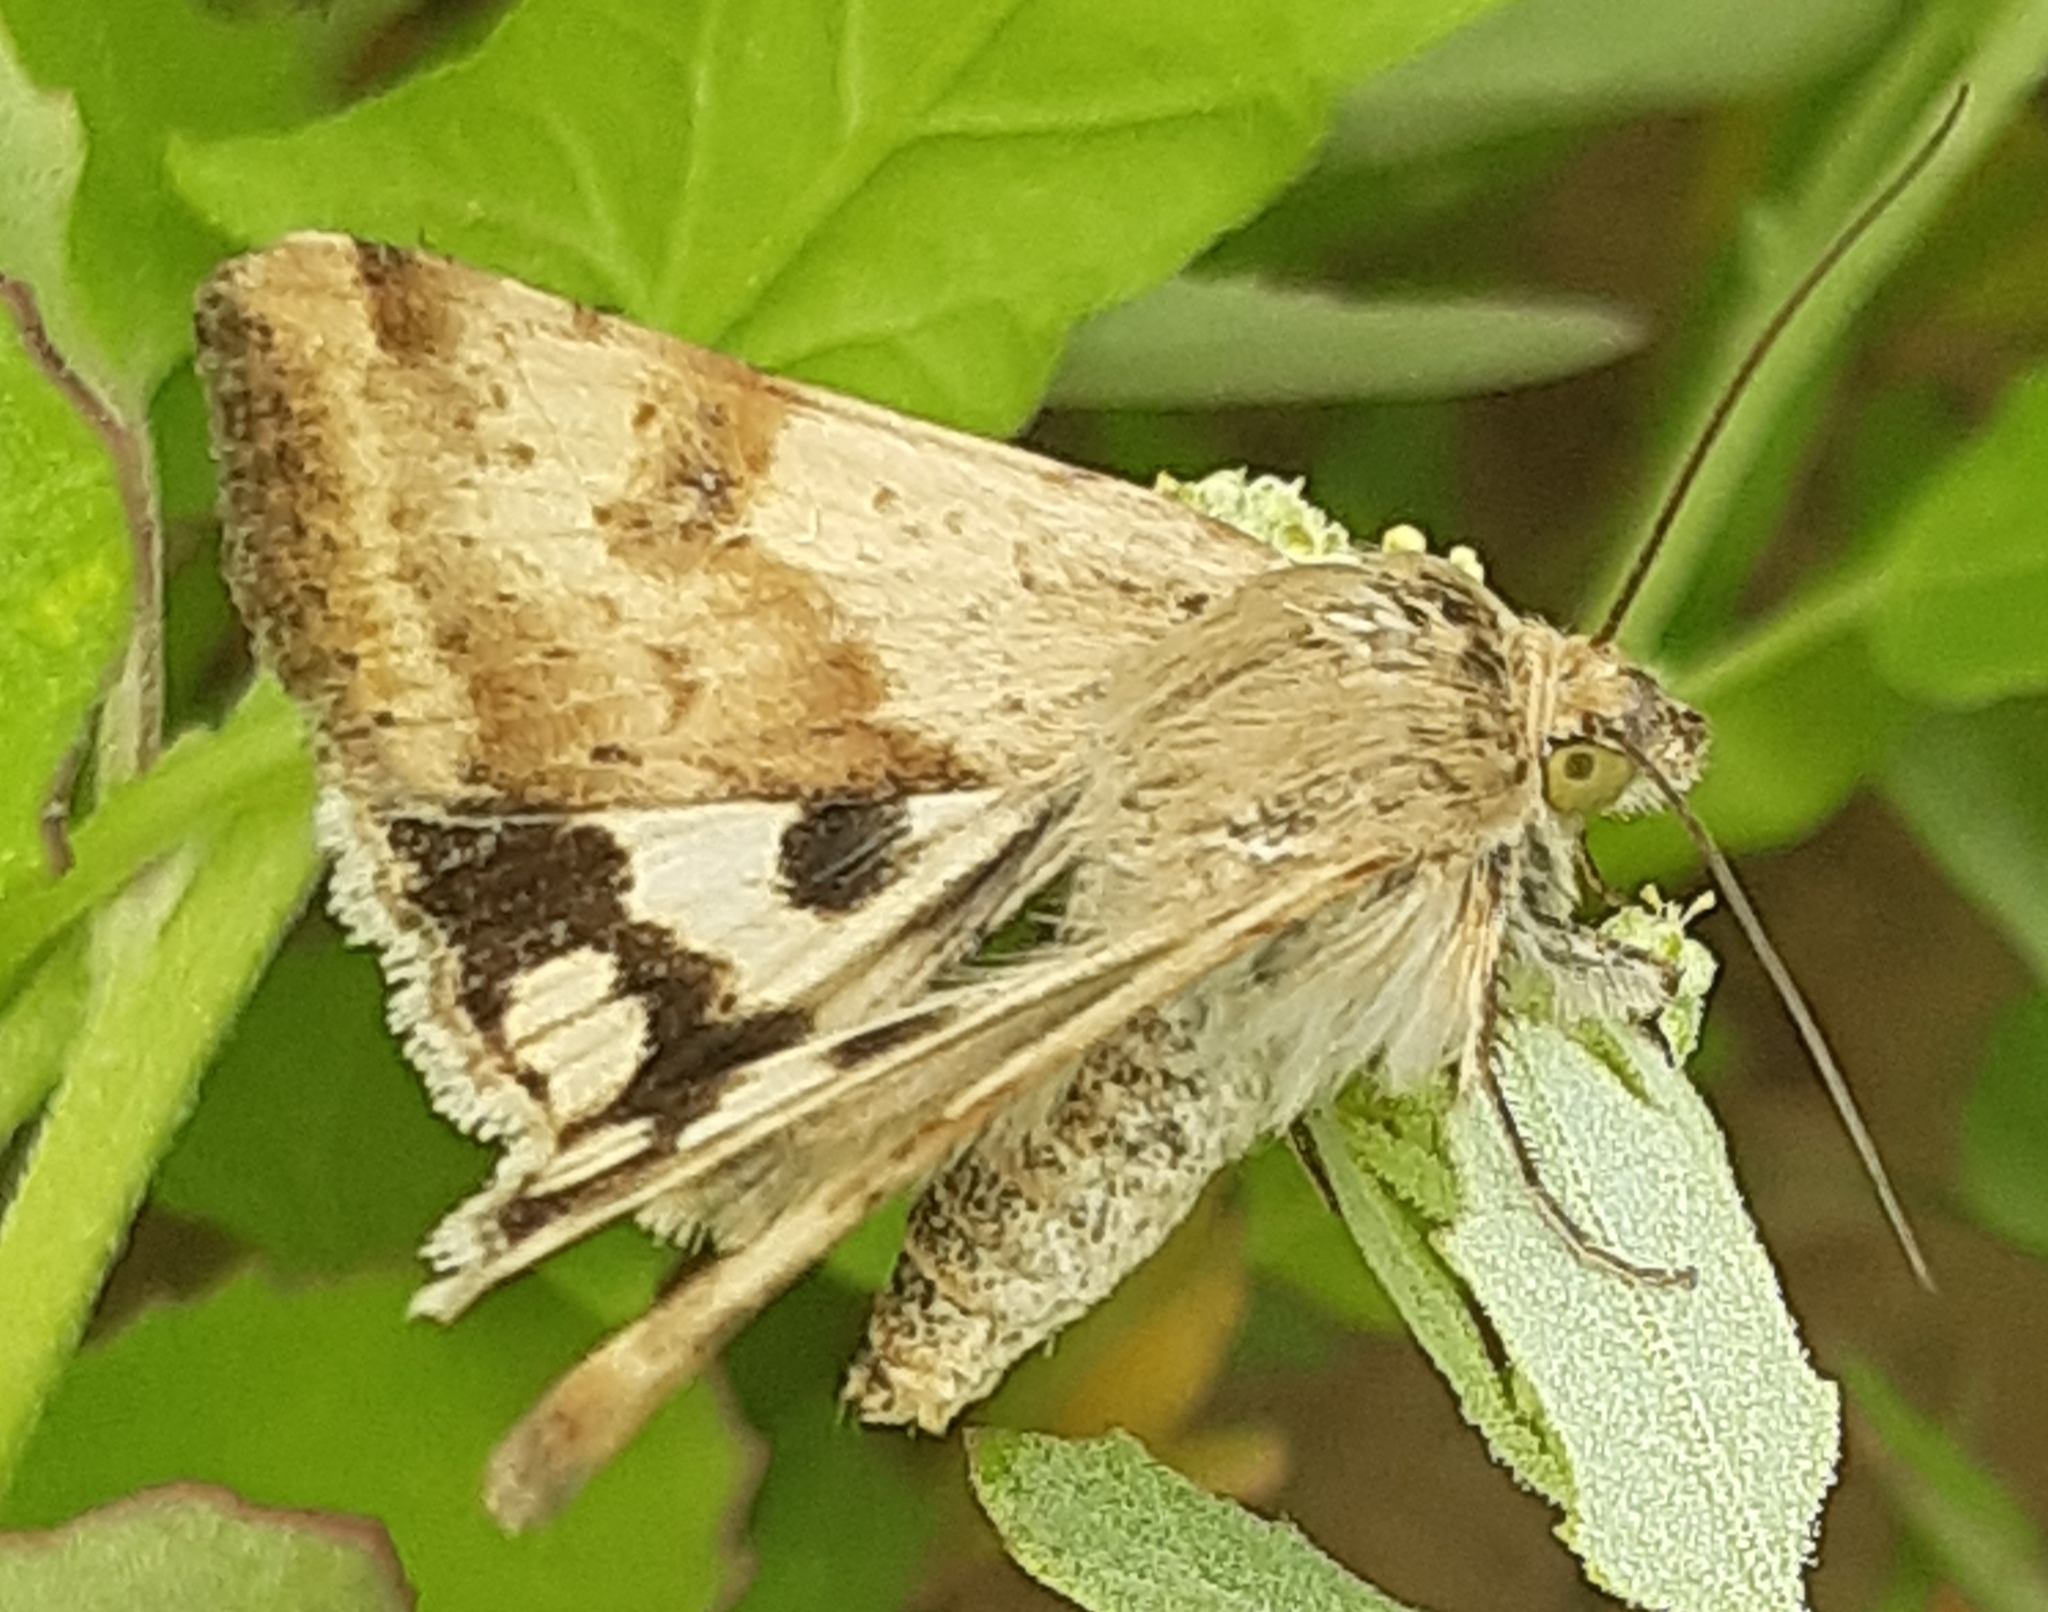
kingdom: Animalia
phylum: Arthropoda
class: Insecta
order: Lepidoptera
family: Noctuidae
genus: Heliothis
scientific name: Heliothis viriplaca
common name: Marbled clover
